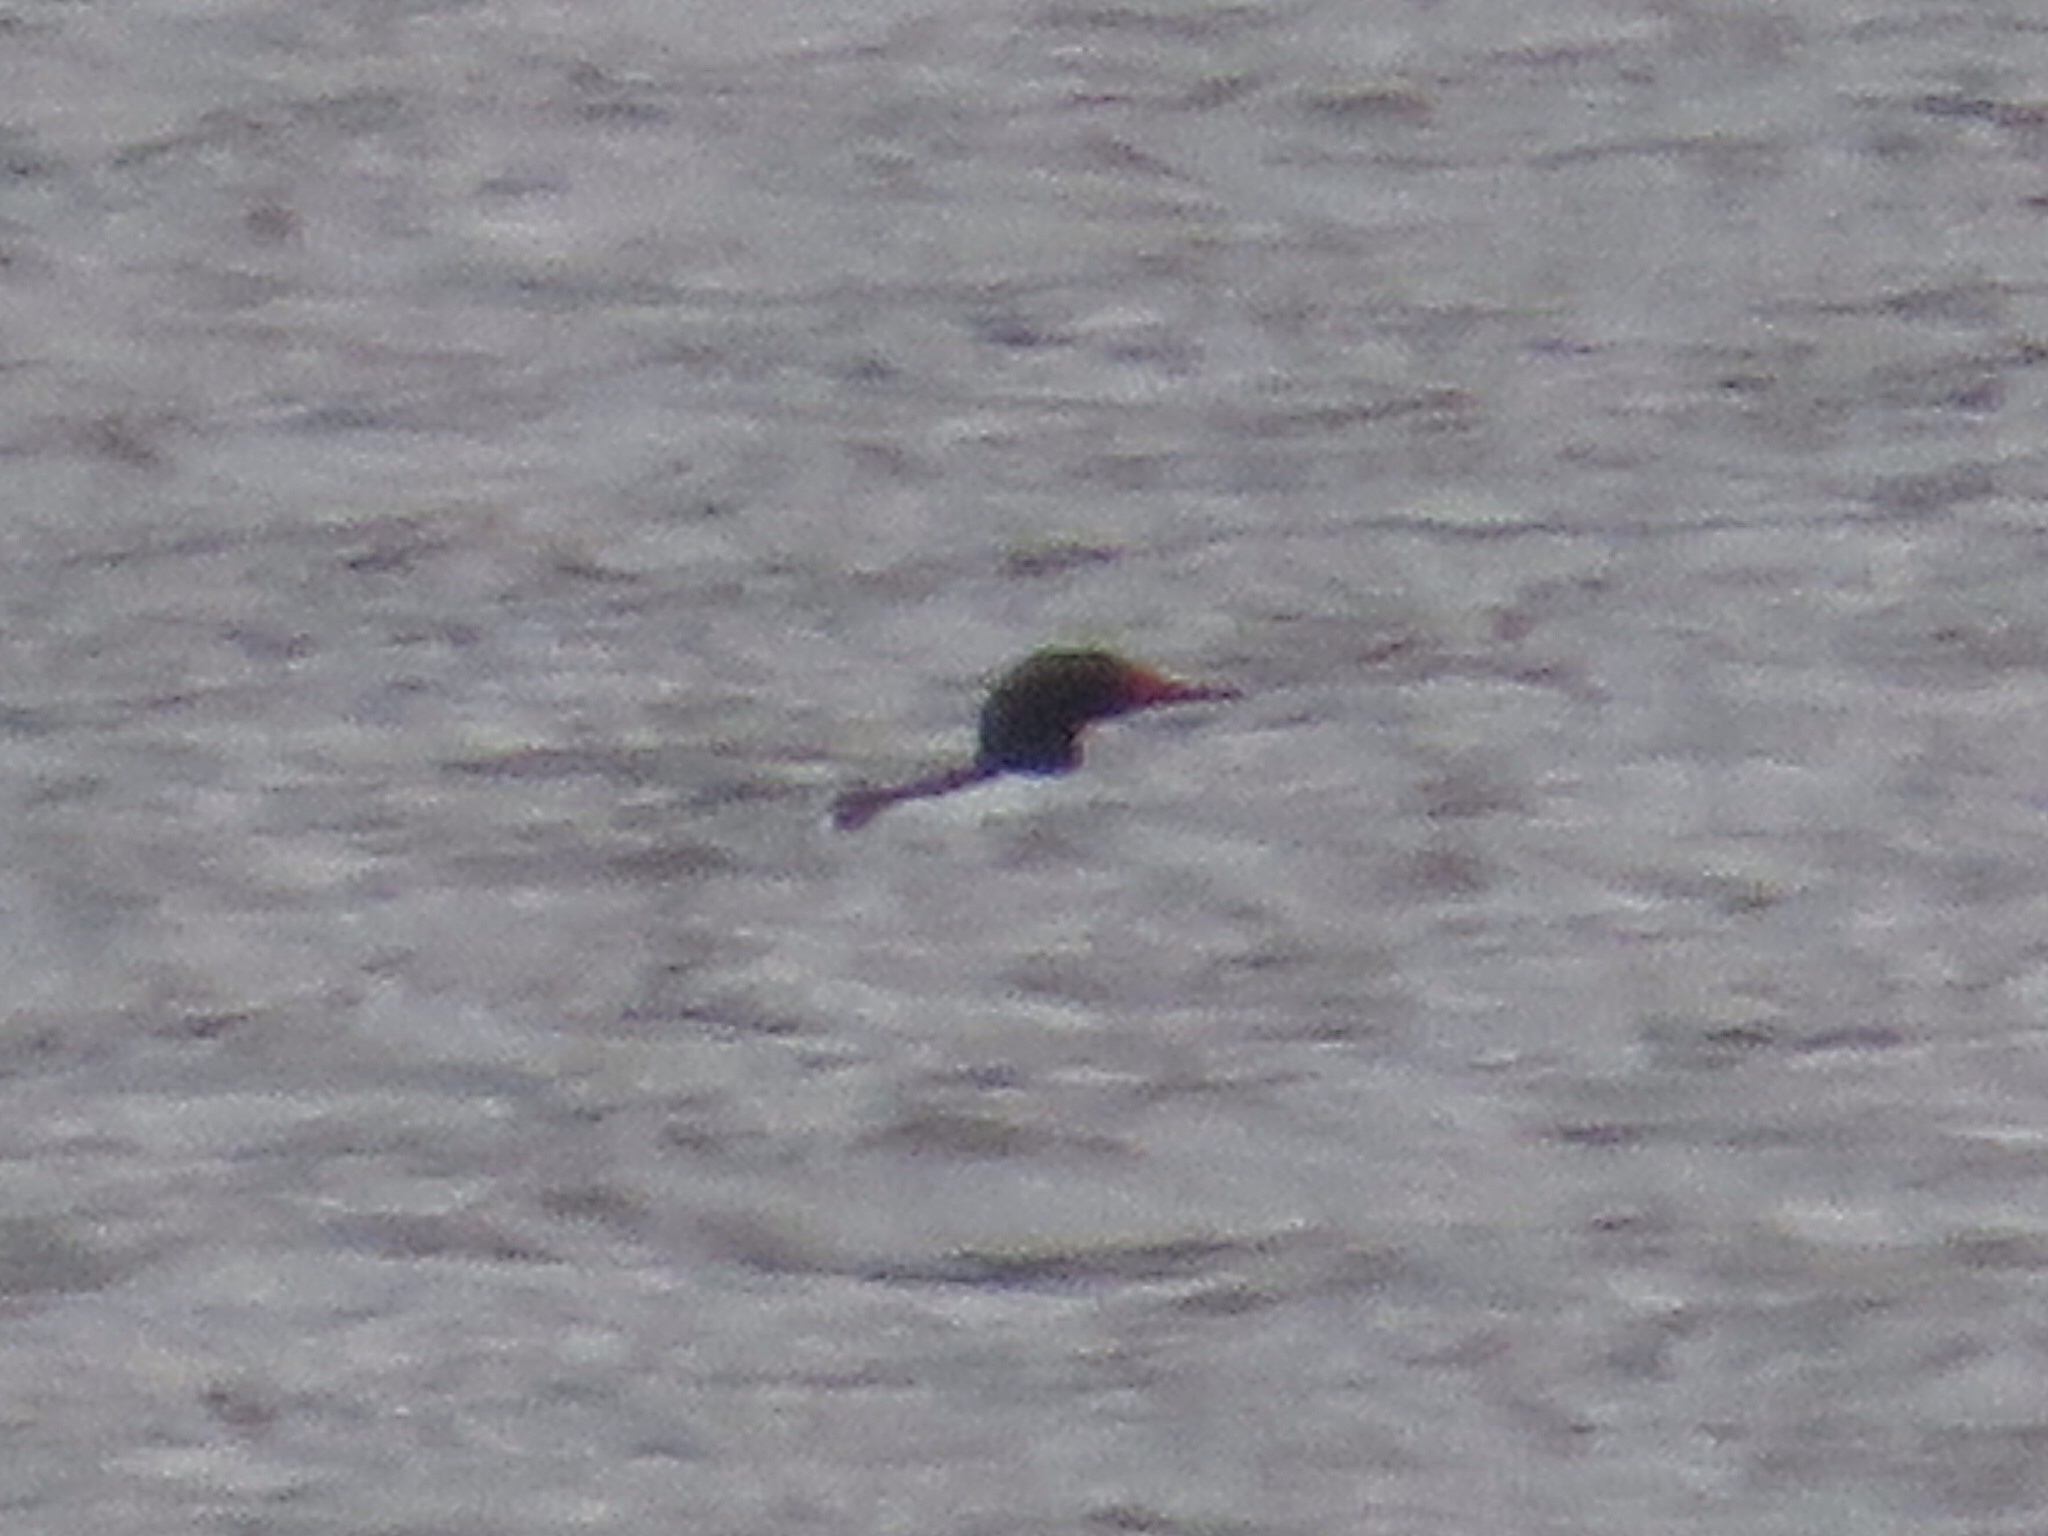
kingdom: Animalia
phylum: Chordata
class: Aves
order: Anseriformes
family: Anatidae
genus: Mergus
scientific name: Mergus merganser
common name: Common merganser
